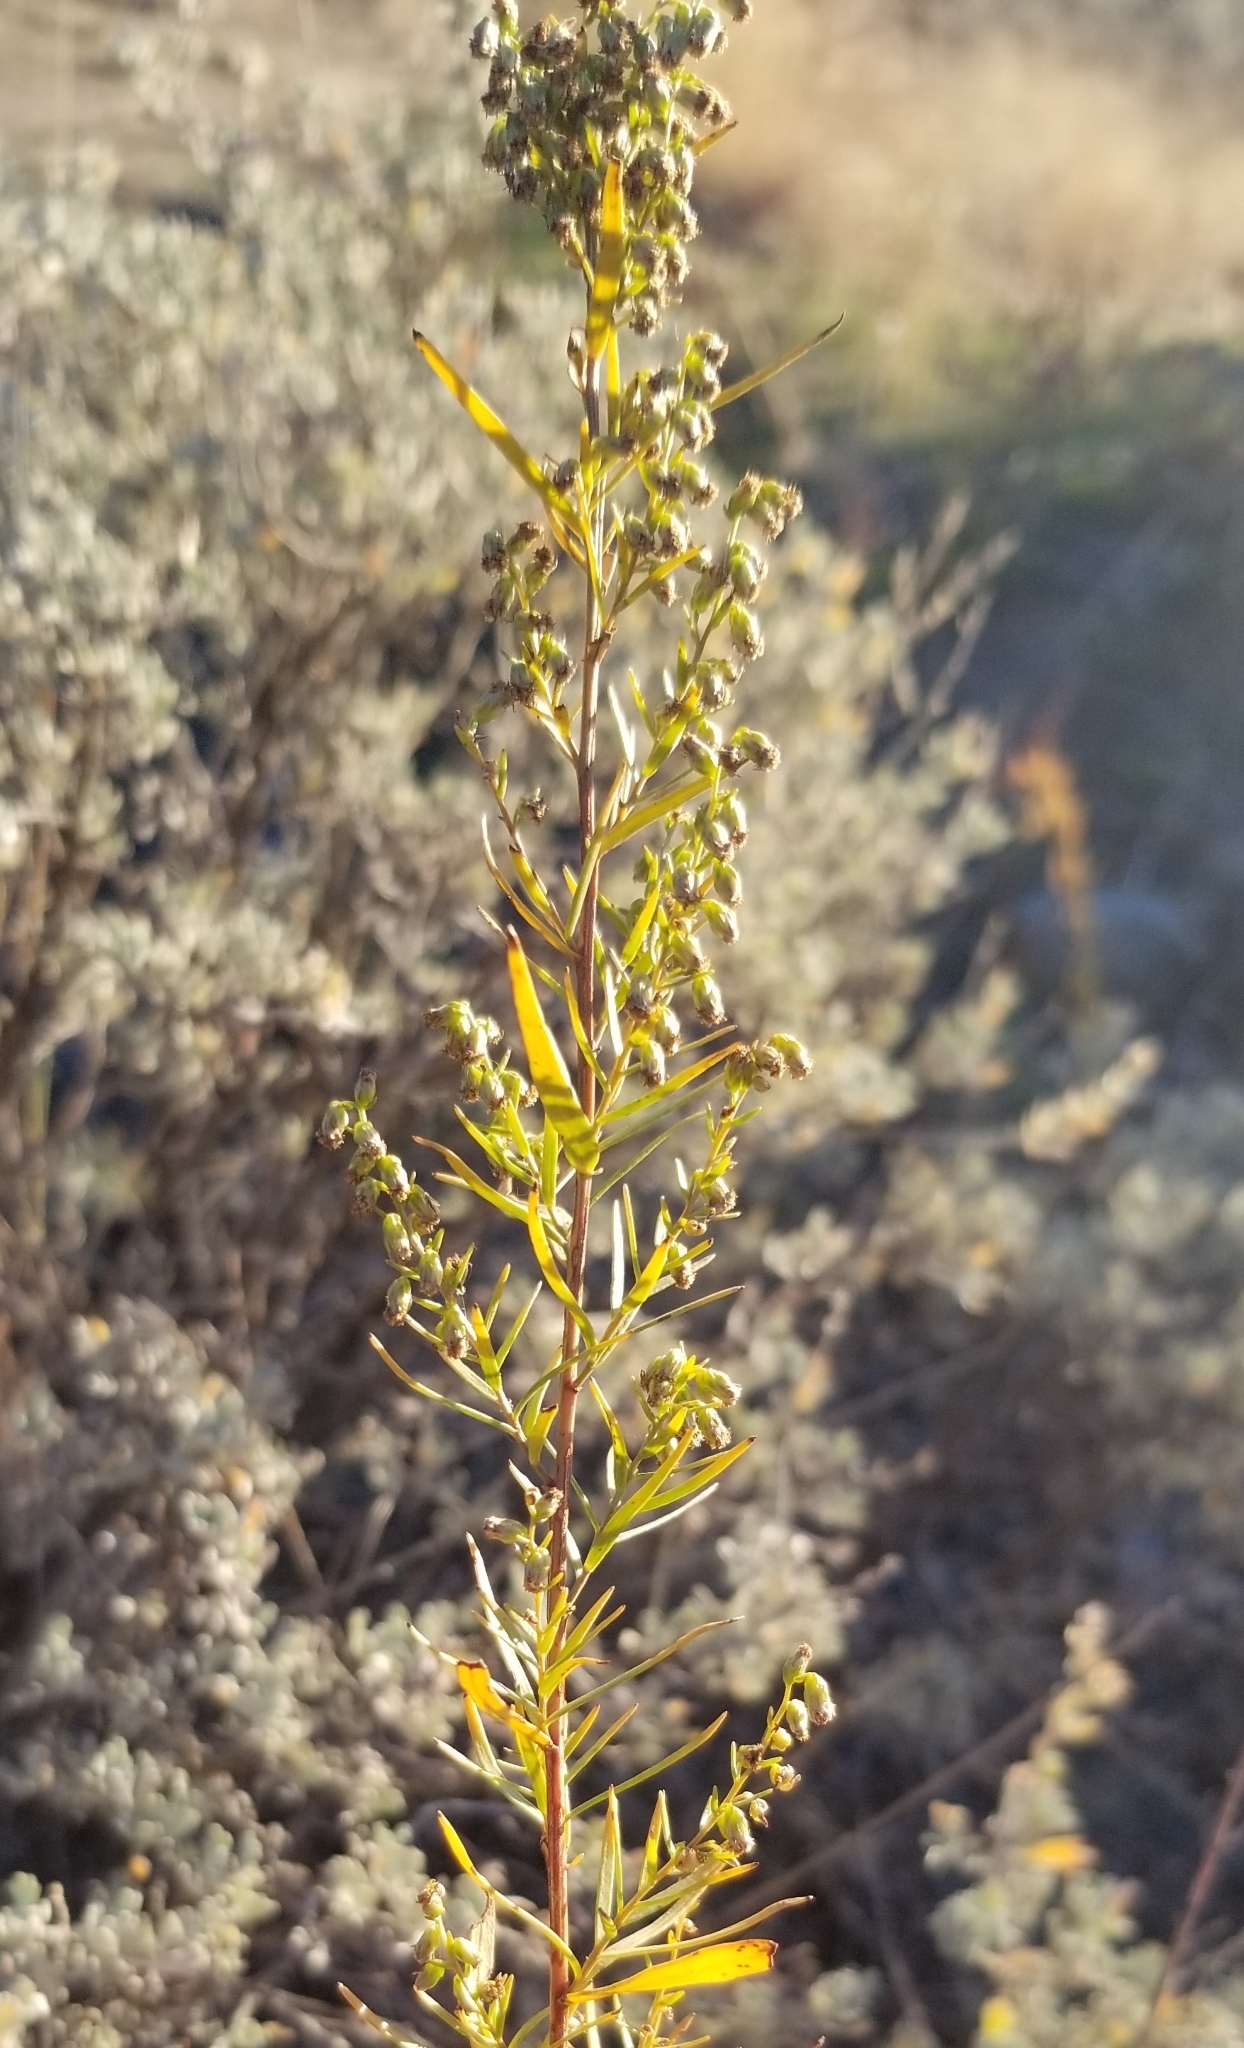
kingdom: Plantae
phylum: Tracheophyta
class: Magnoliopsida
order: Asterales
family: Asteraceae
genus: Artemisia
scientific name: Artemisia dracunculus
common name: Tarragon
